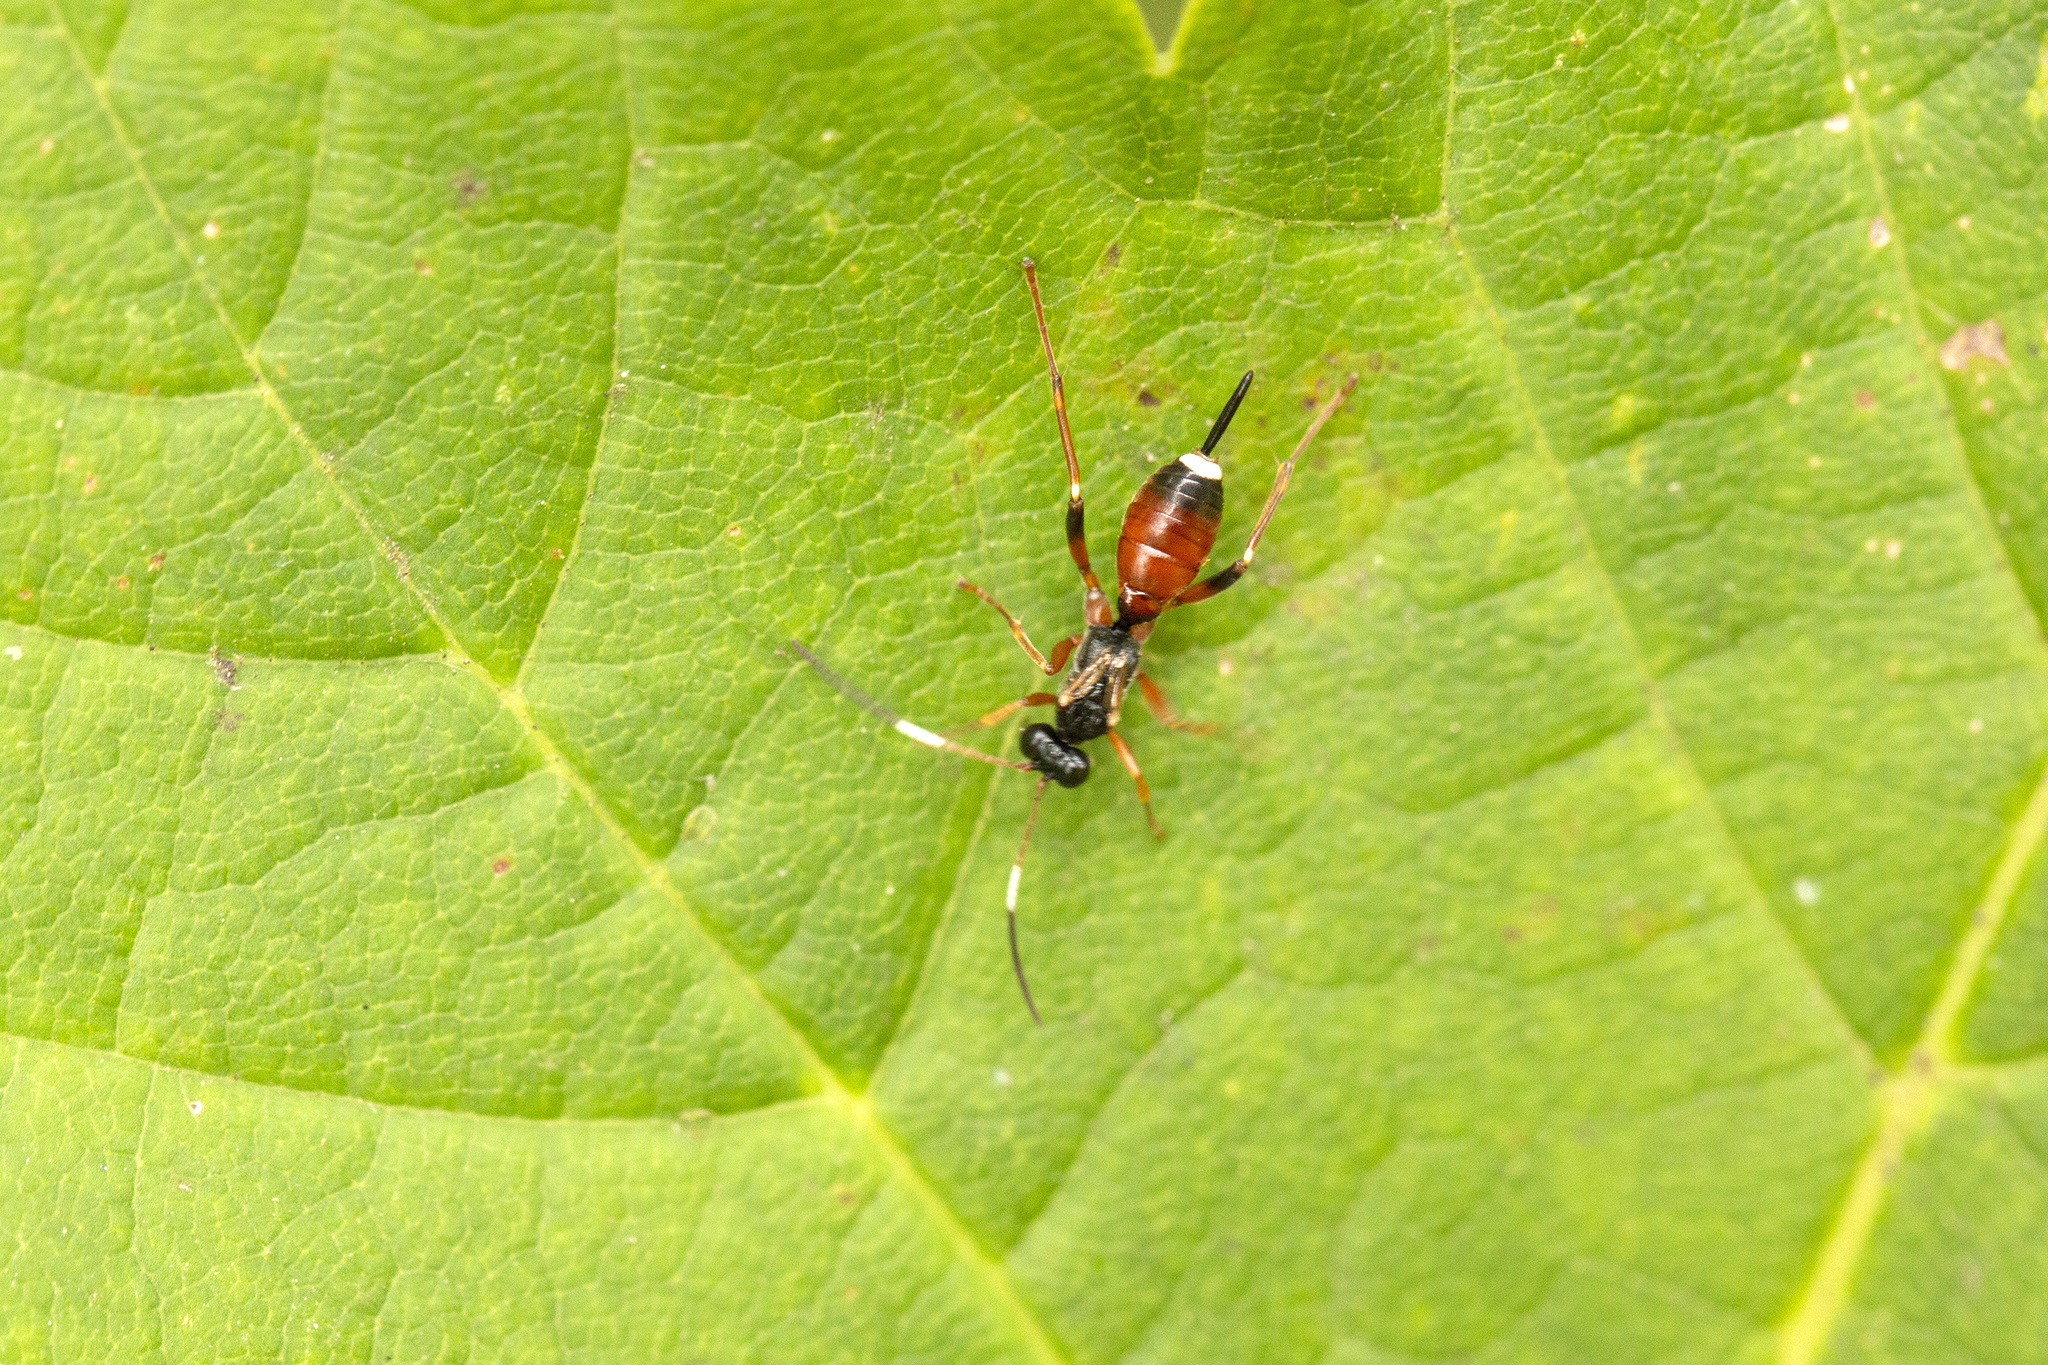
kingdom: Animalia
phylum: Arthropoda
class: Insecta
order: Hymenoptera
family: Ichneumonidae
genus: Pleolophus
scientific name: Pleolophus brachypterus
